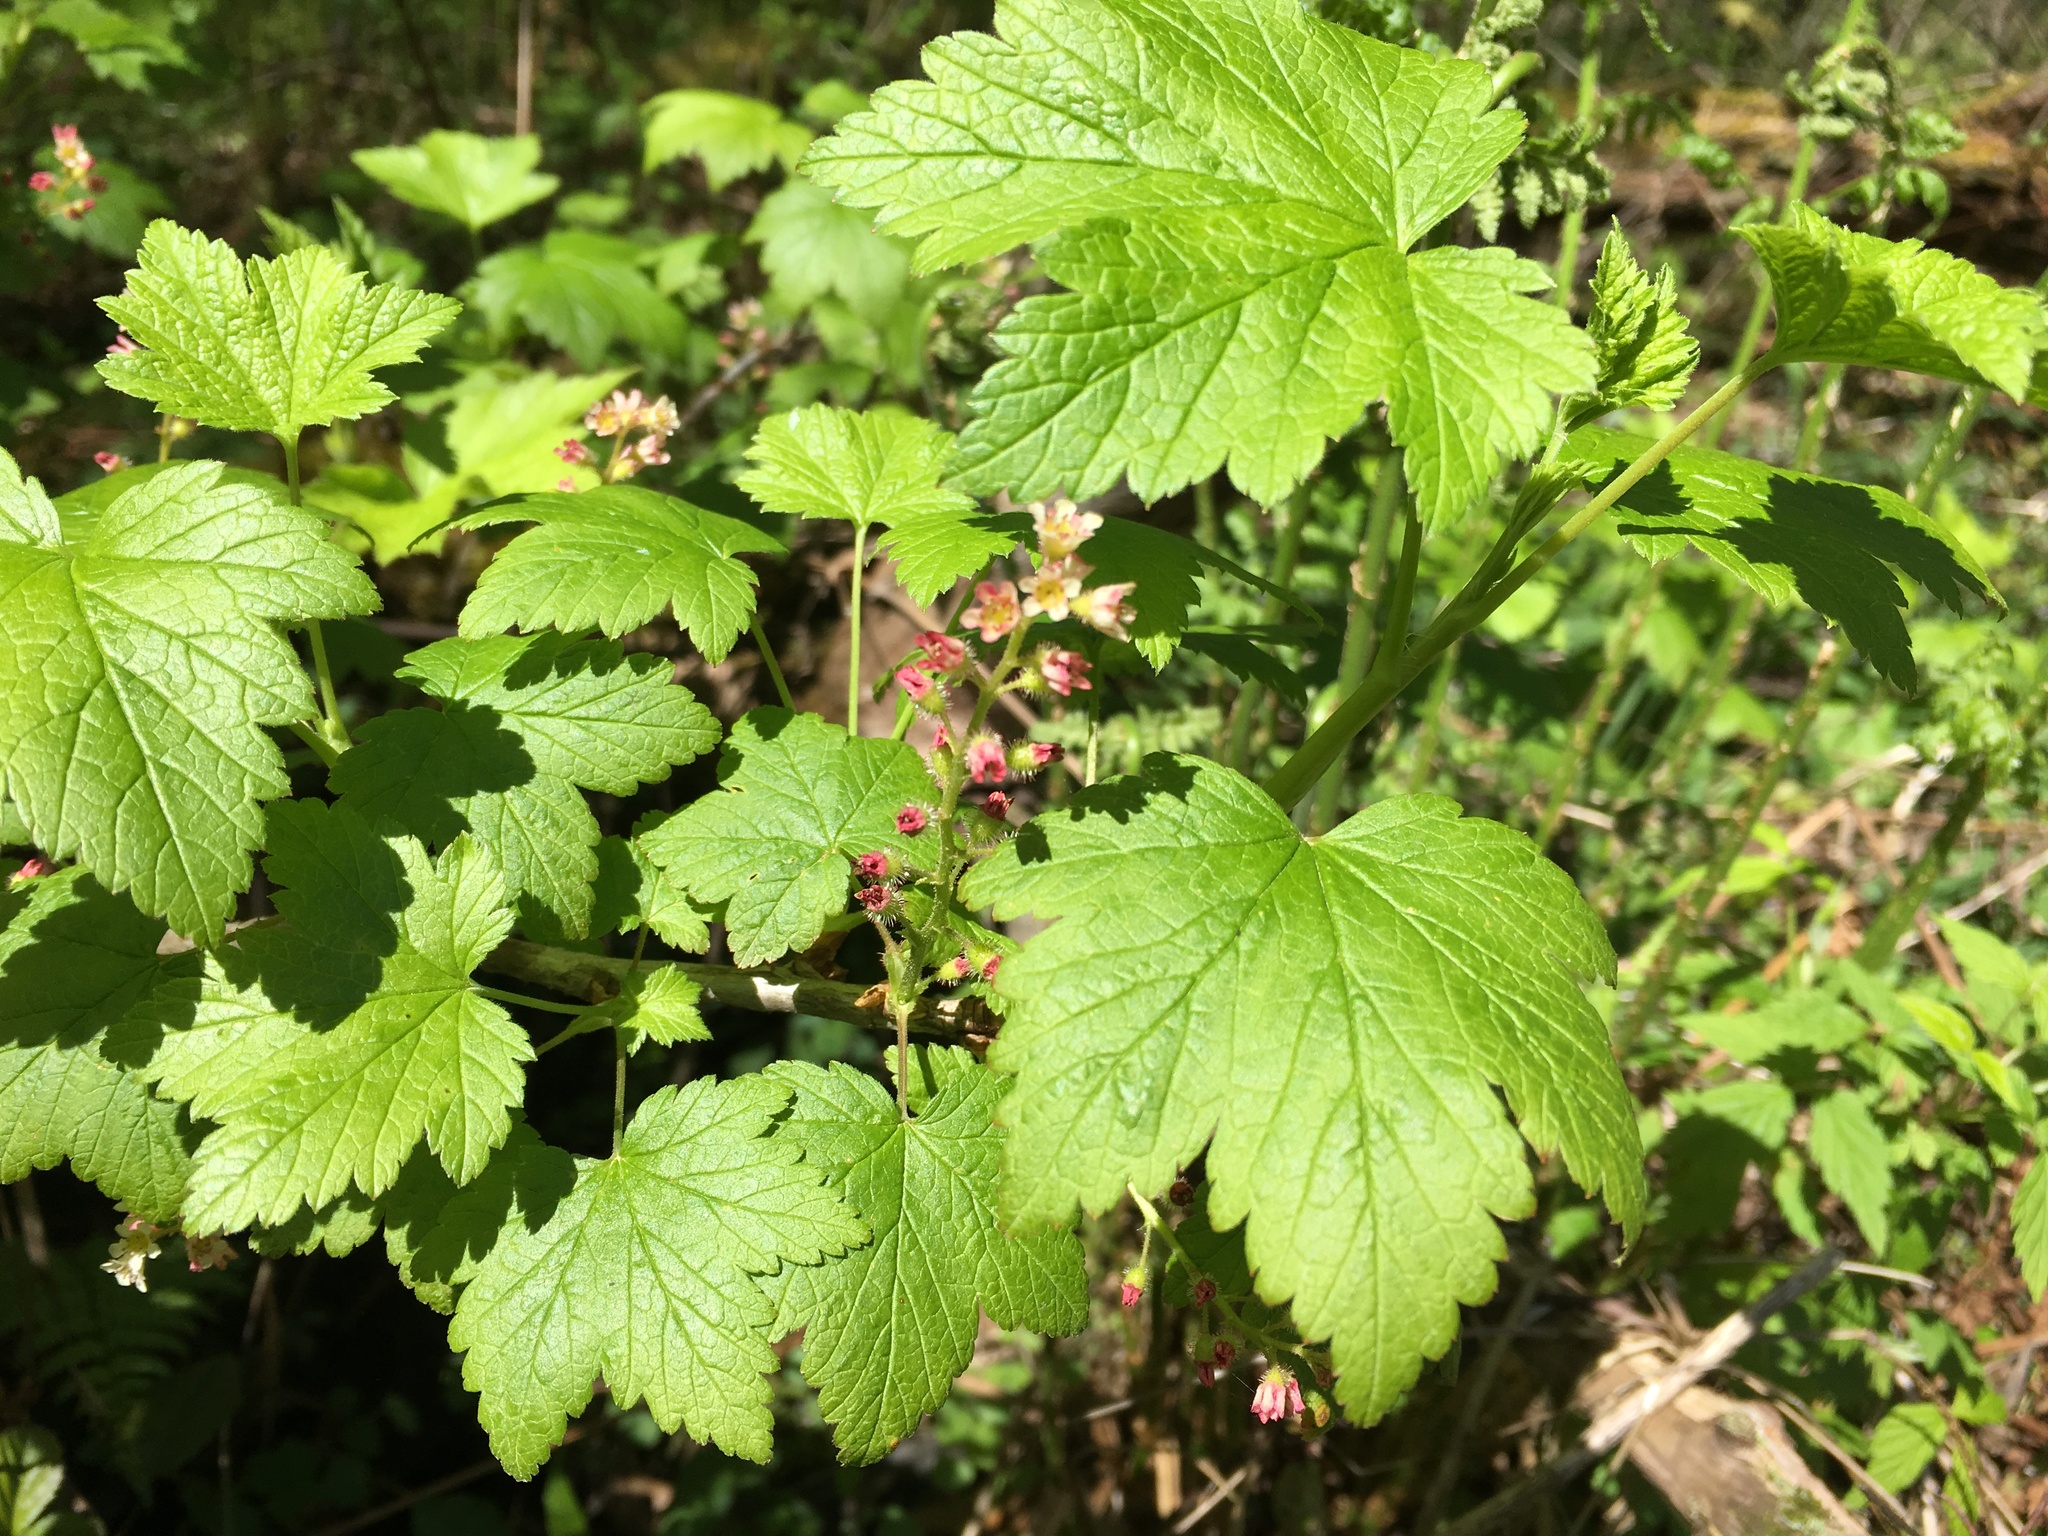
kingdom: Plantae
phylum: Tracheophyta
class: Magnoliopsida
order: Saxifragales
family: Grossulariaceae
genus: Ribes
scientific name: Ribes glandulosum
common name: Skunk currant
